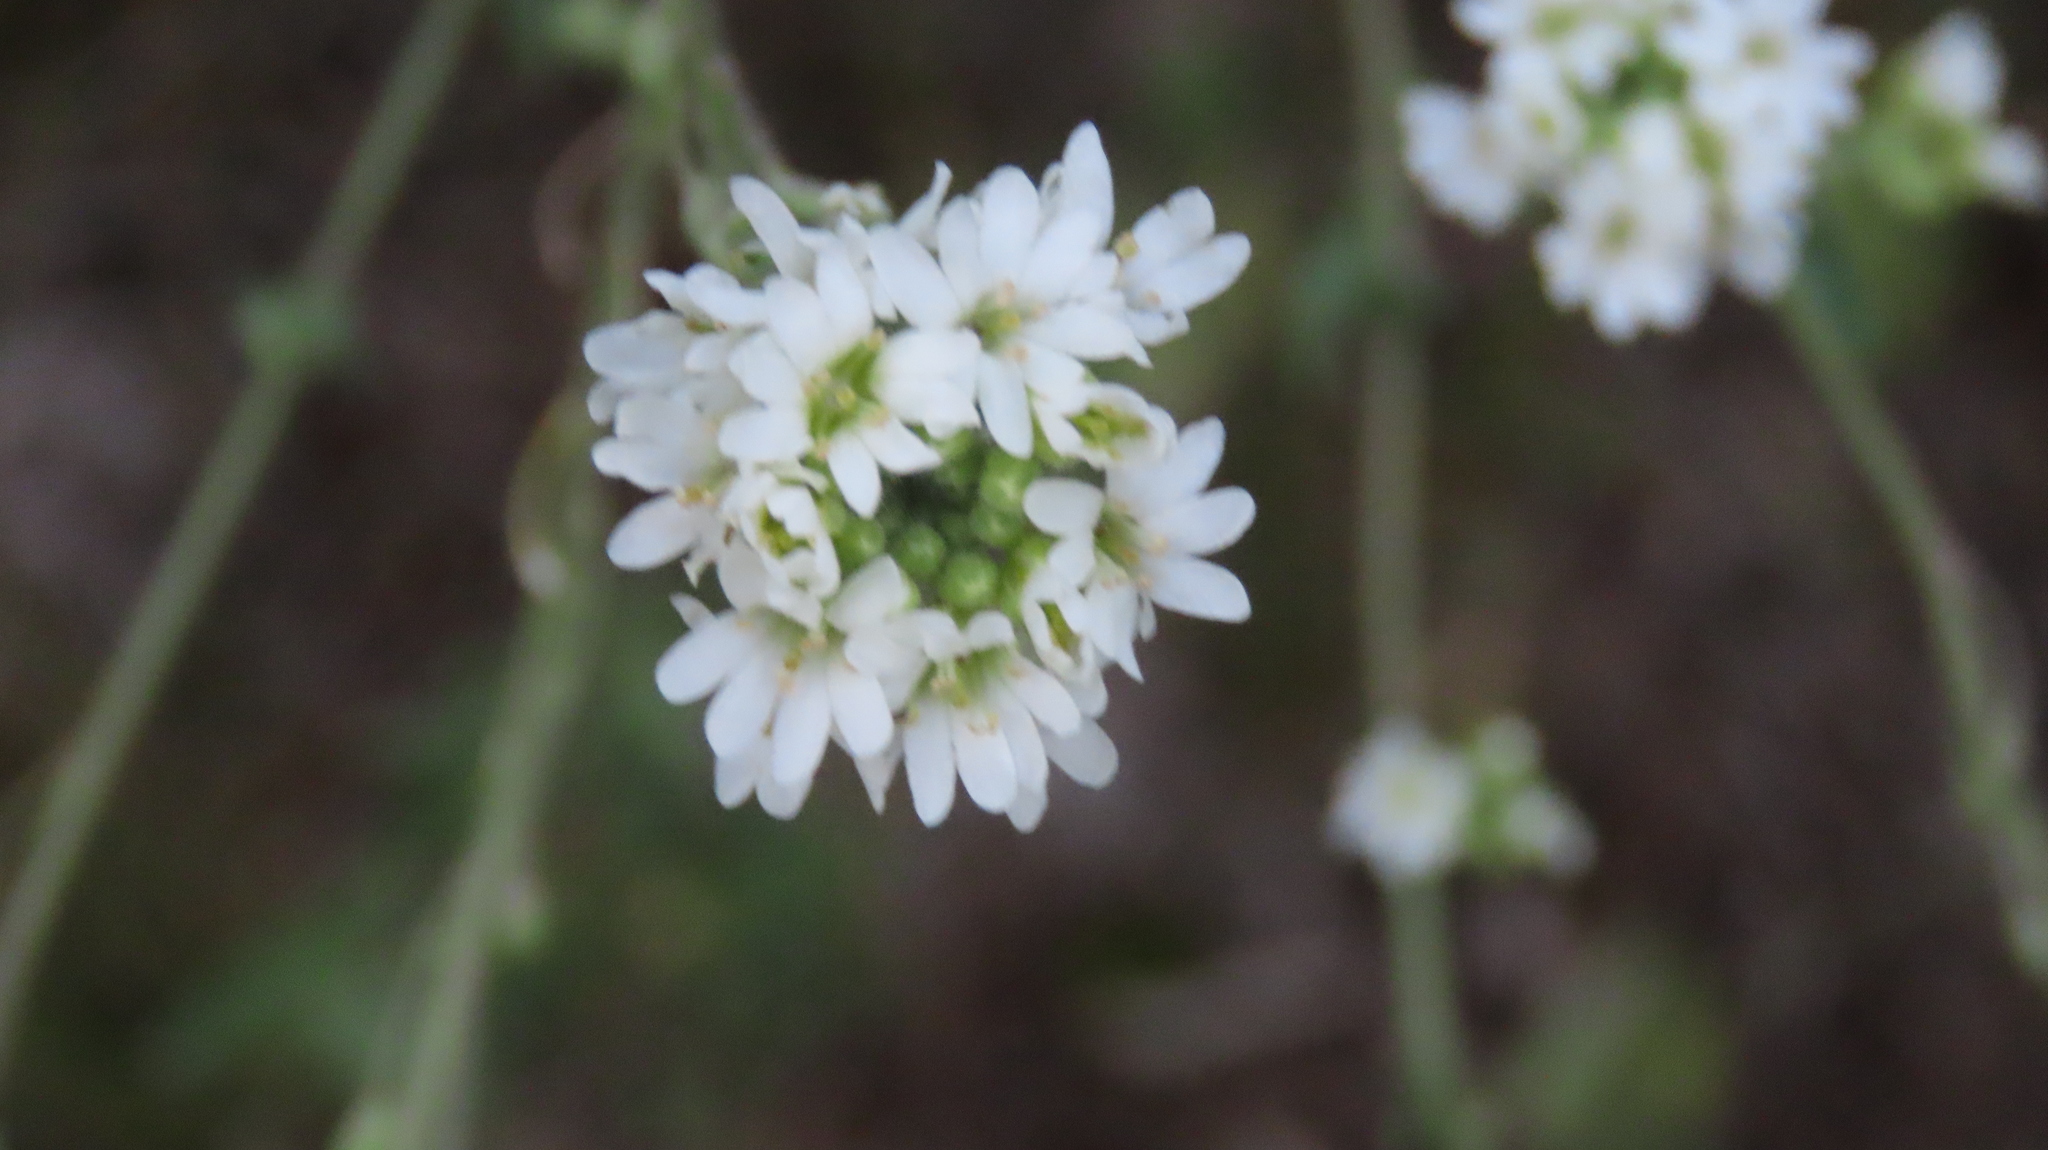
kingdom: Plantae
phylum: Tracheophyta
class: Magnoliopsida
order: Brassicales
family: Brassicaceae
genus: Berteroa
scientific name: Berteroa incana
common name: Hoary alison
